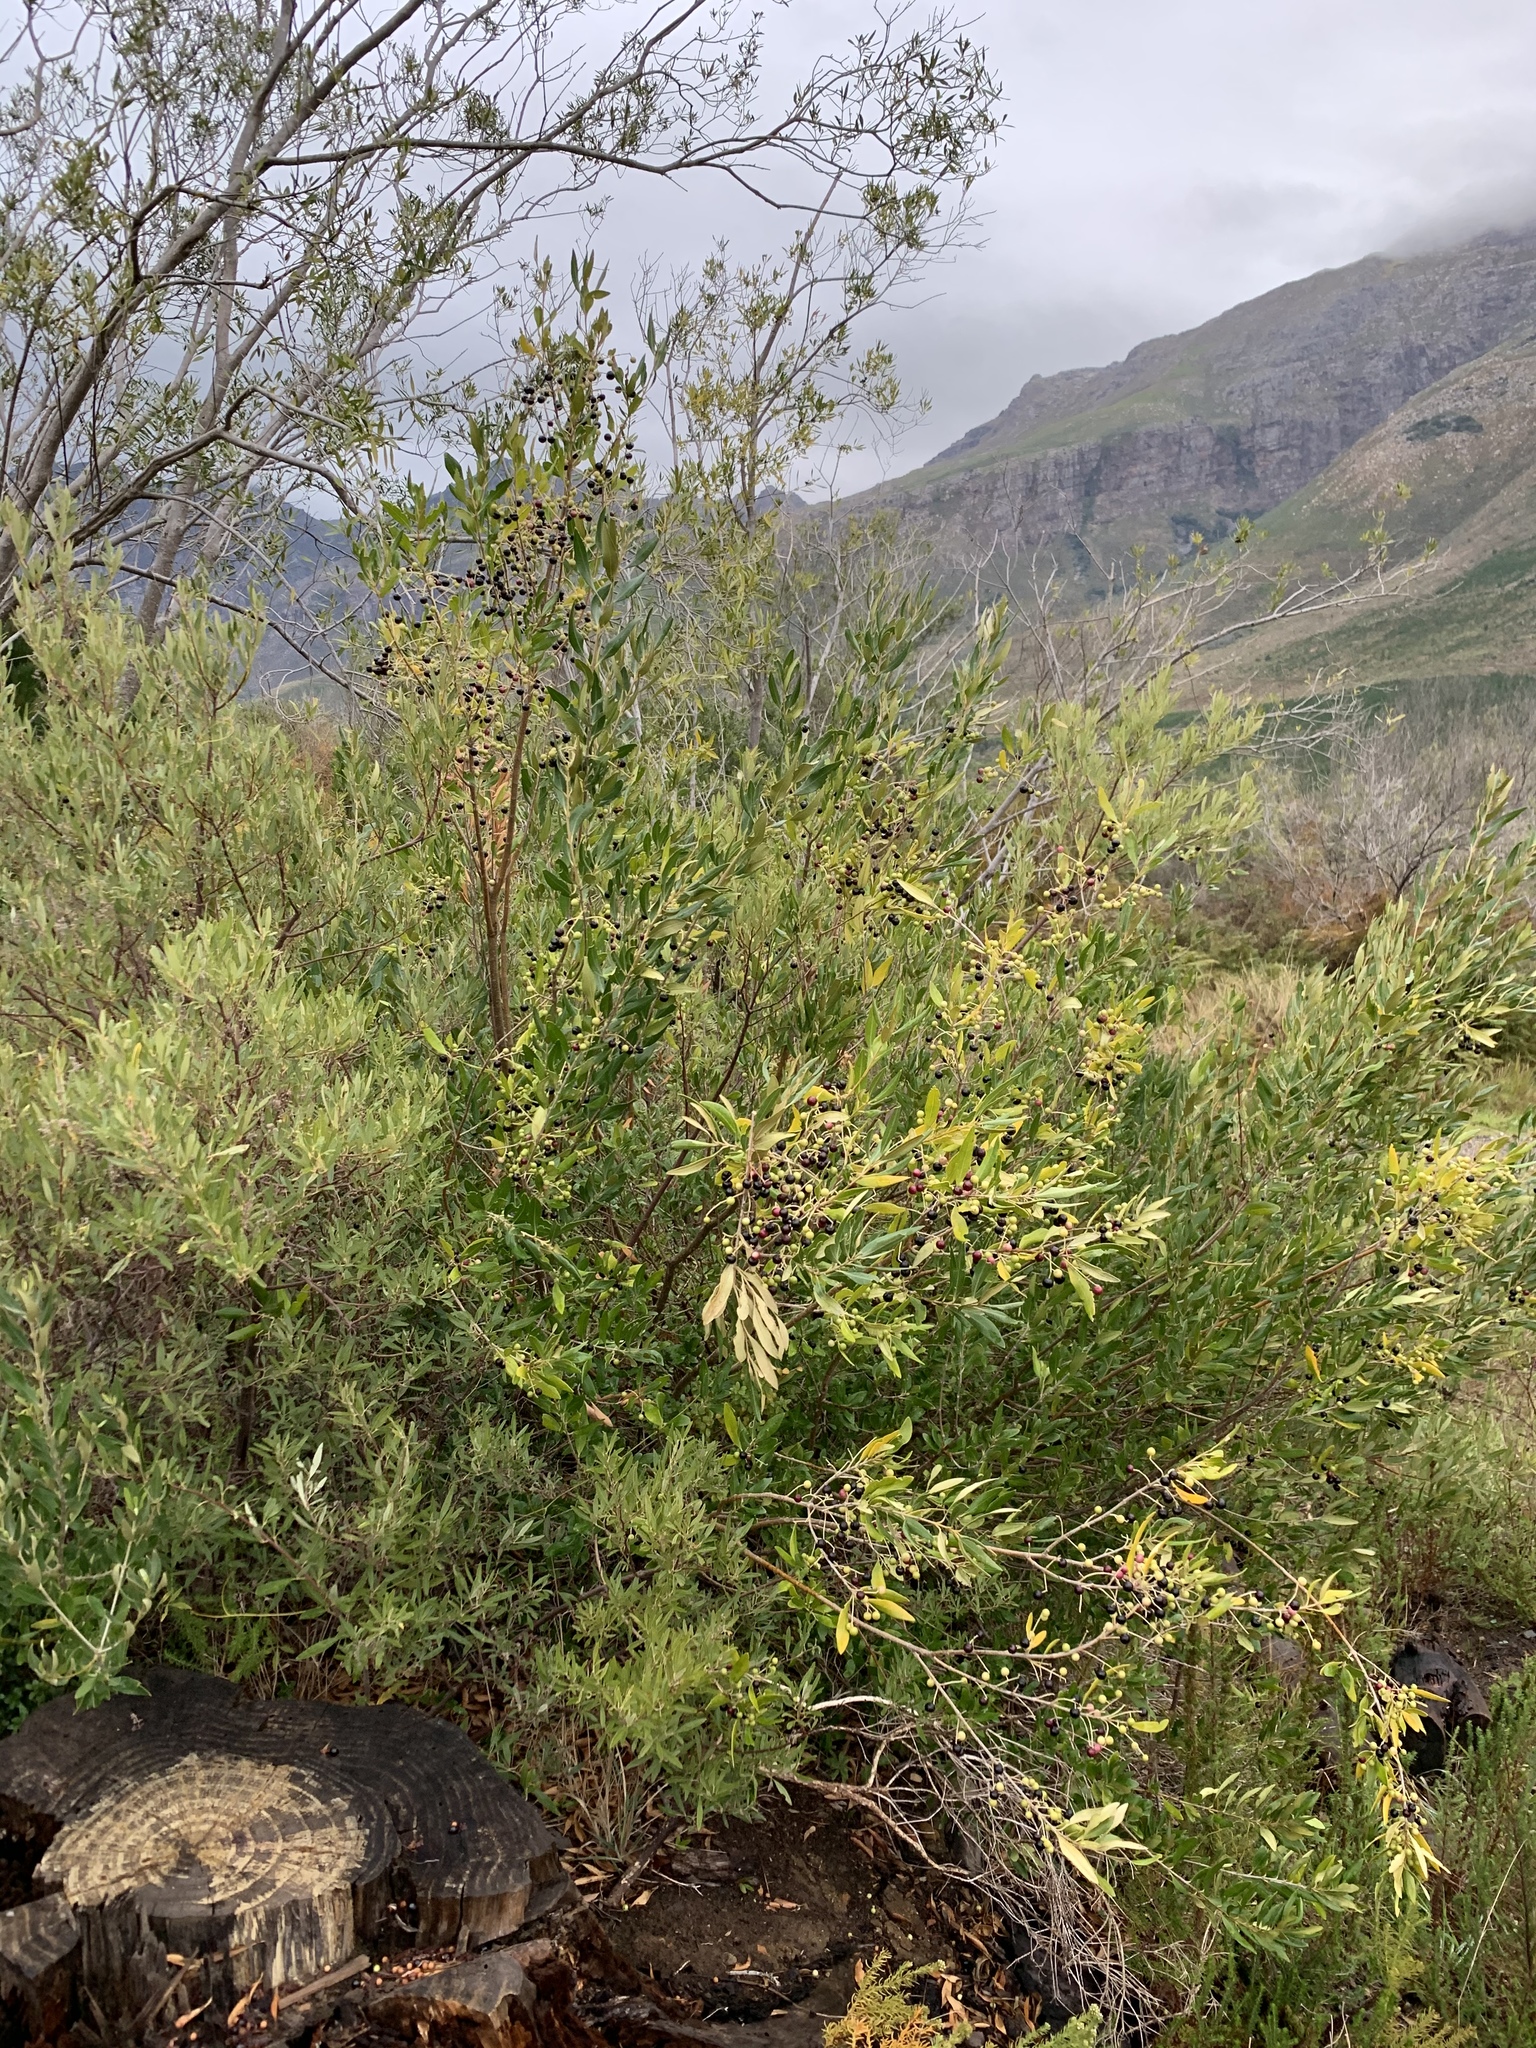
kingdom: Plantae
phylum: Tracheophyta
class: Magnoliopsida
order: Lamiales
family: Oleaceae
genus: Olea
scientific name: Olea europaea
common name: Olive
